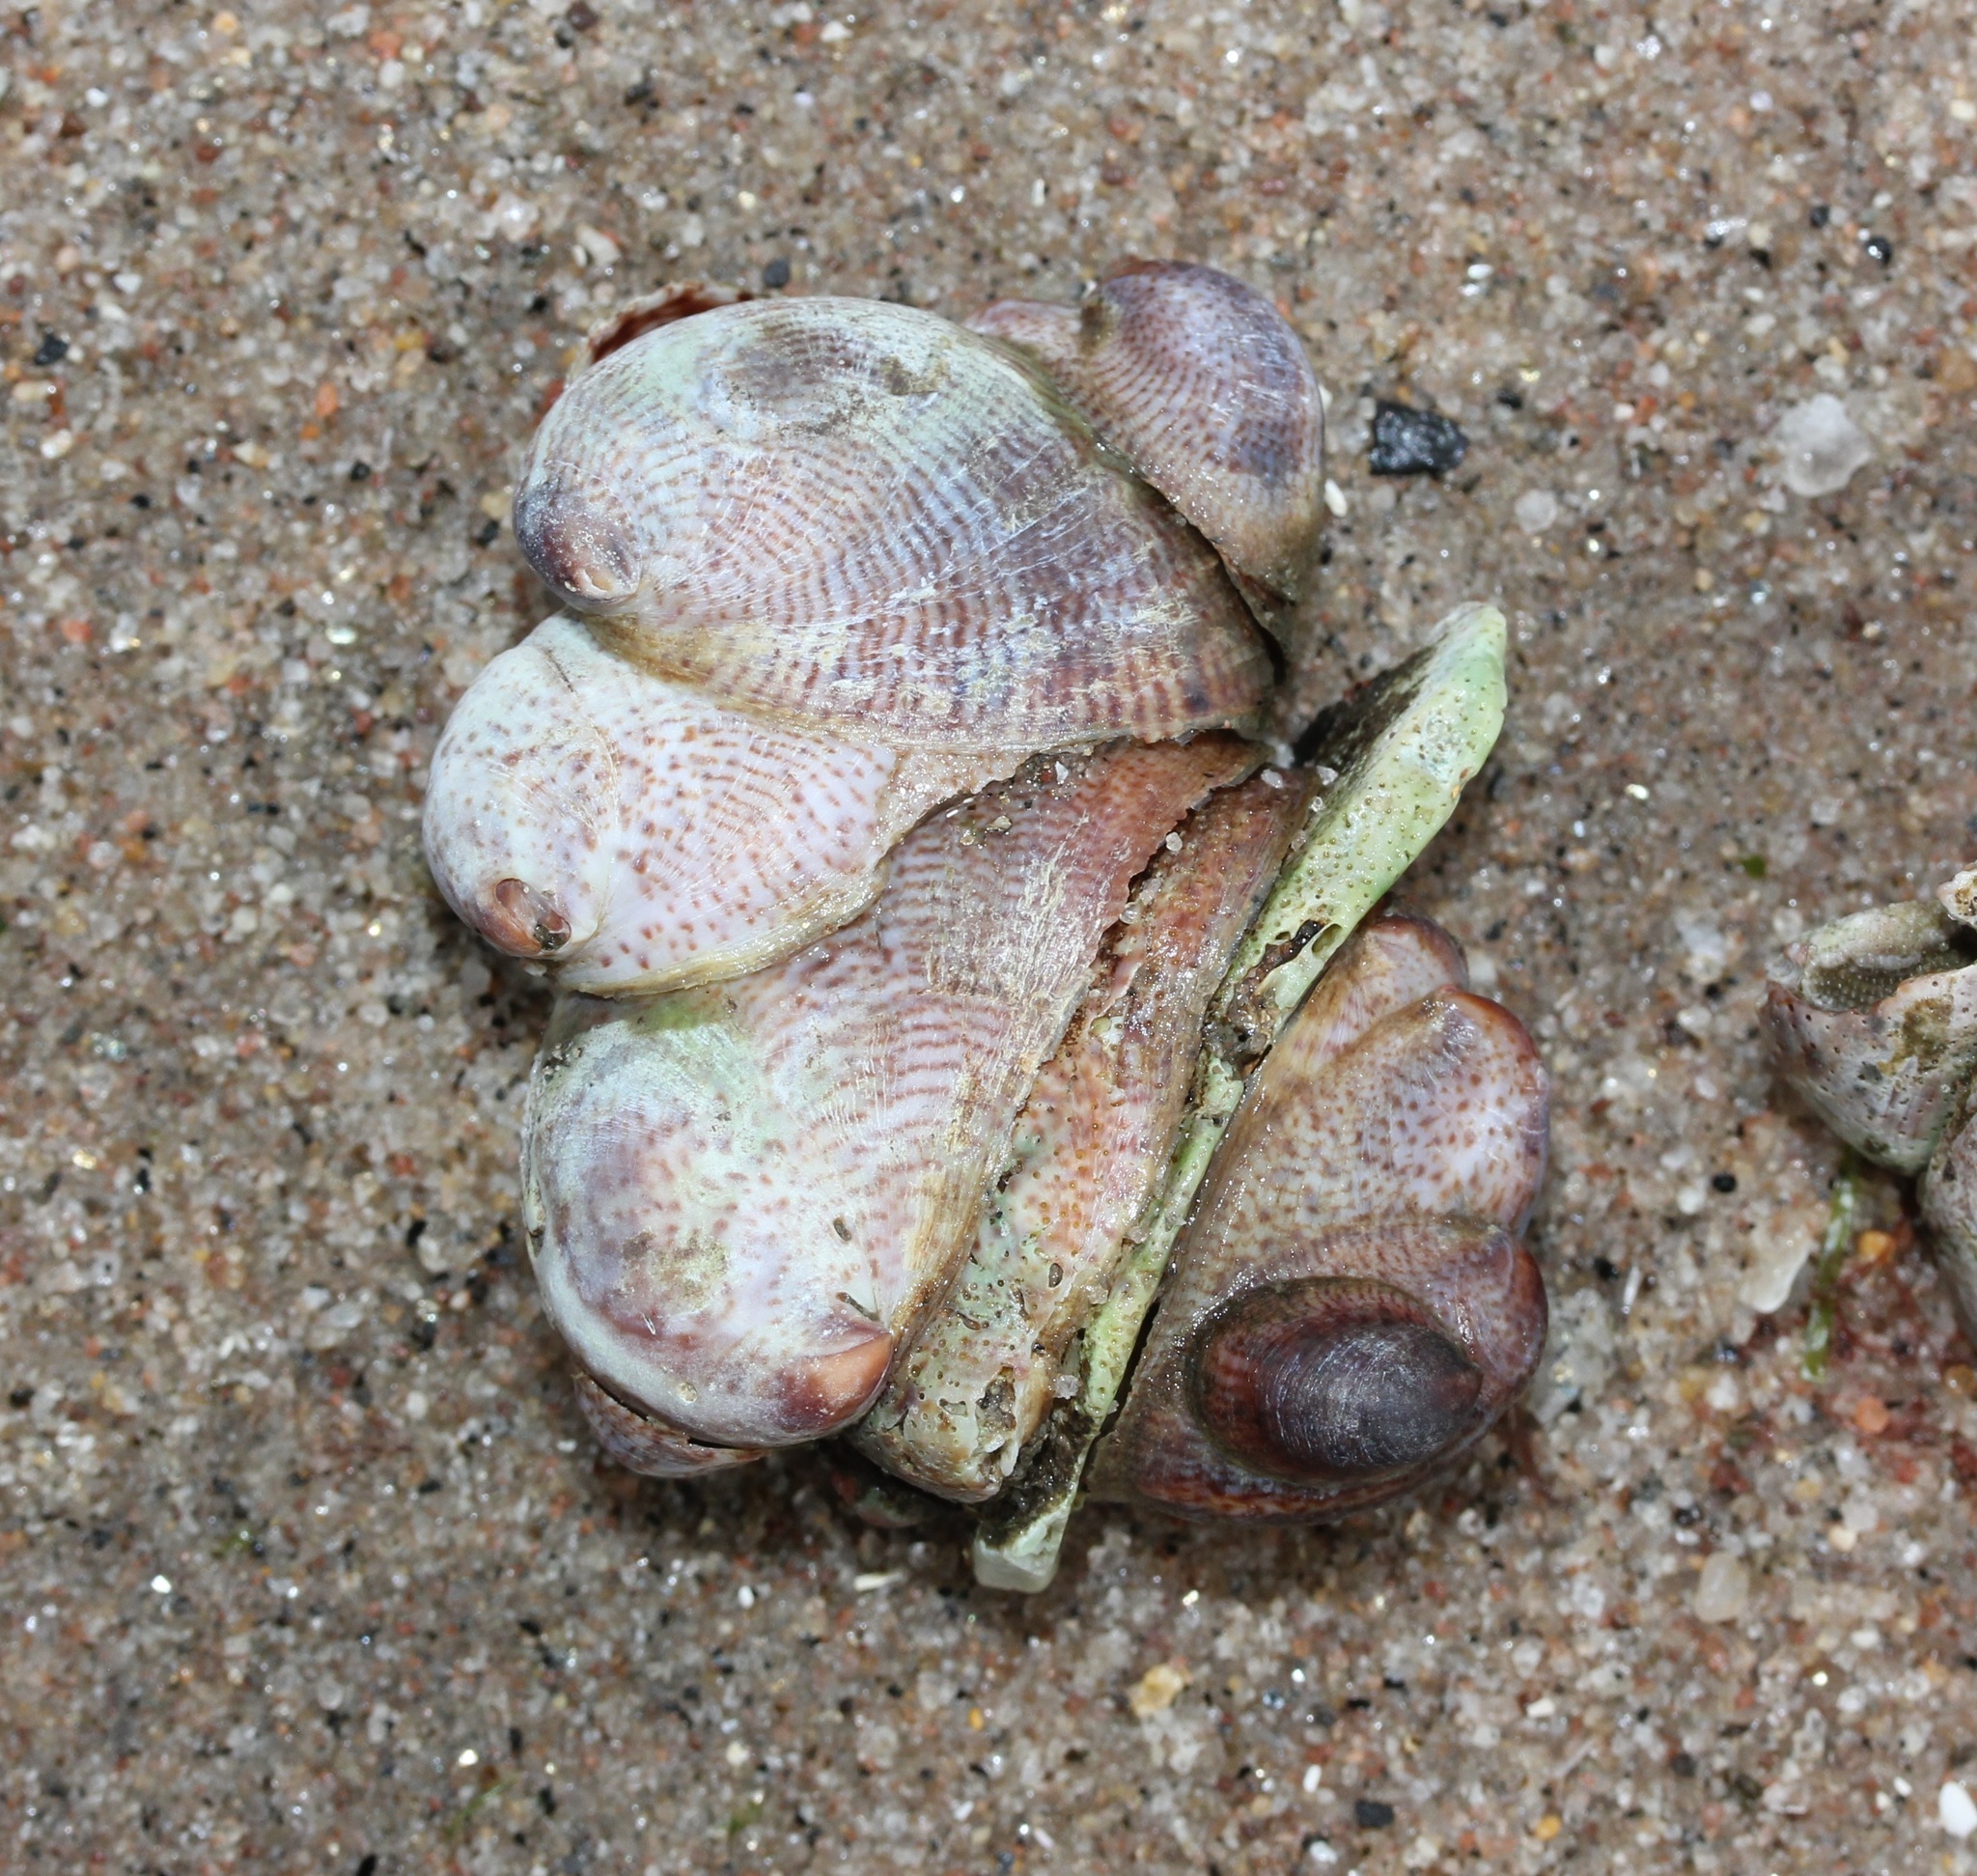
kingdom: Animalia
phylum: Mollusca
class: Gastropoda
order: Littorinimorpha
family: Calyptraeidae
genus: Crepidula
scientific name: Crepidula fornicata
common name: Slipper limpet
